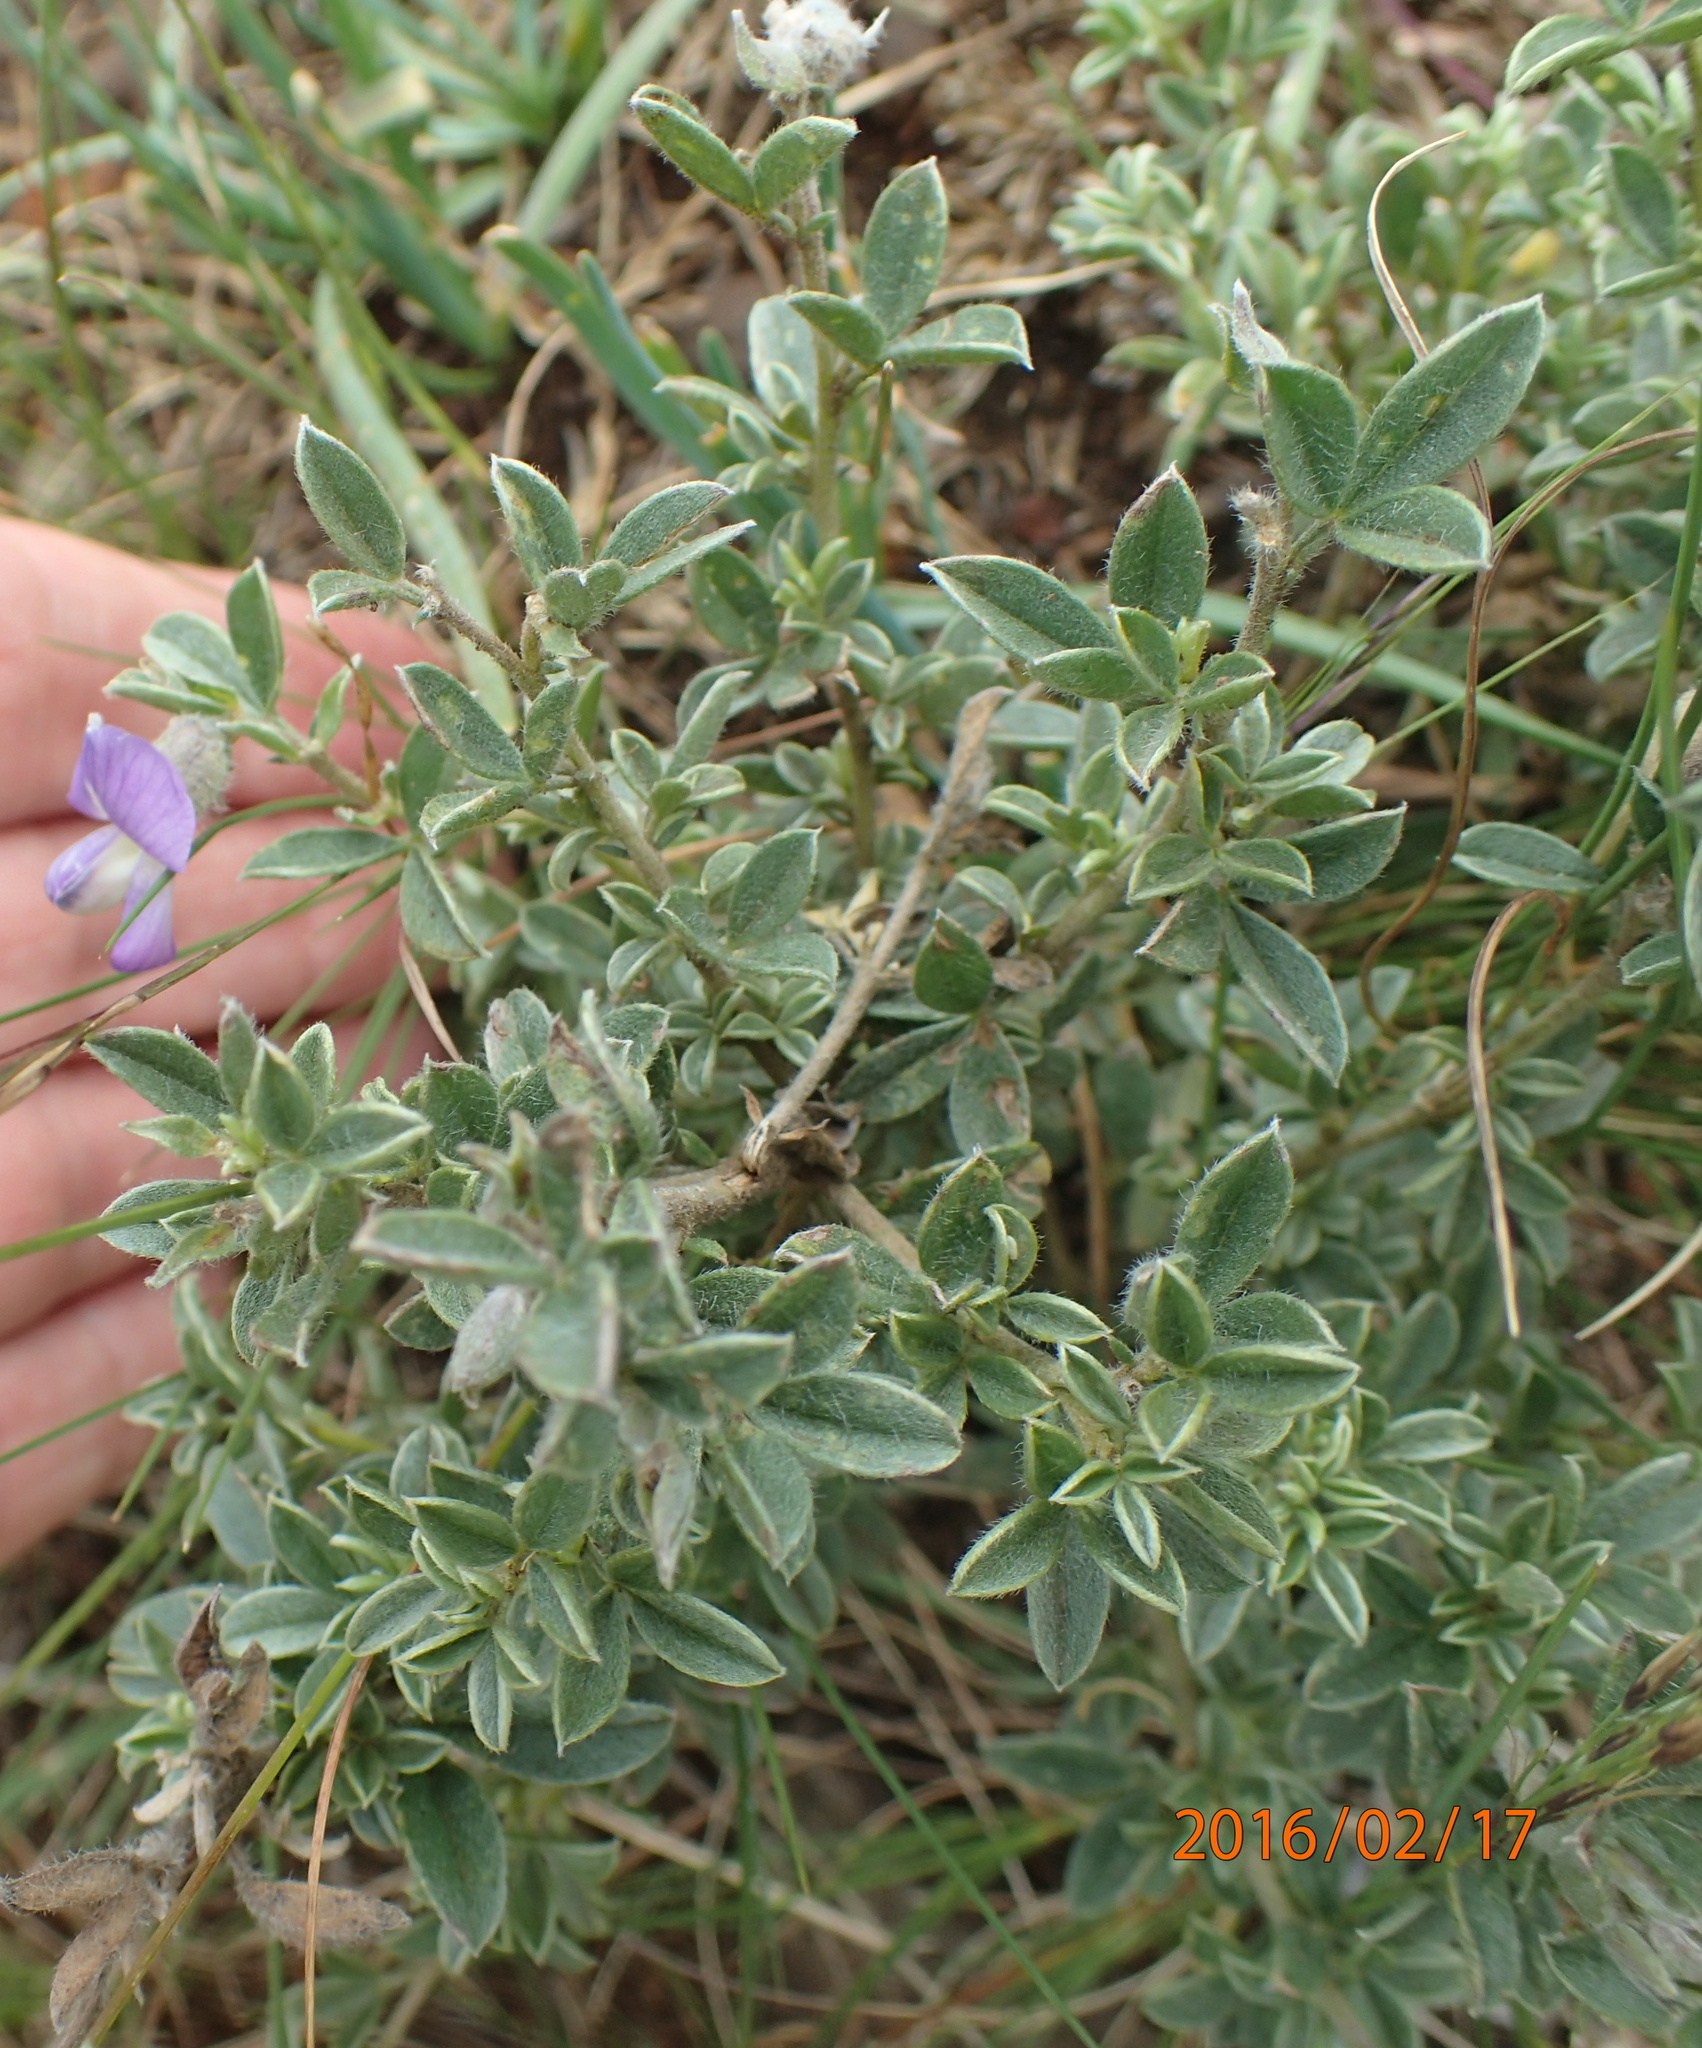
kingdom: Plantae
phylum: Tracheophyta
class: Magnoliopsida
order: Fabales
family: Fabaceae
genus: Lotononis
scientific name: Lotononis lotononoides
